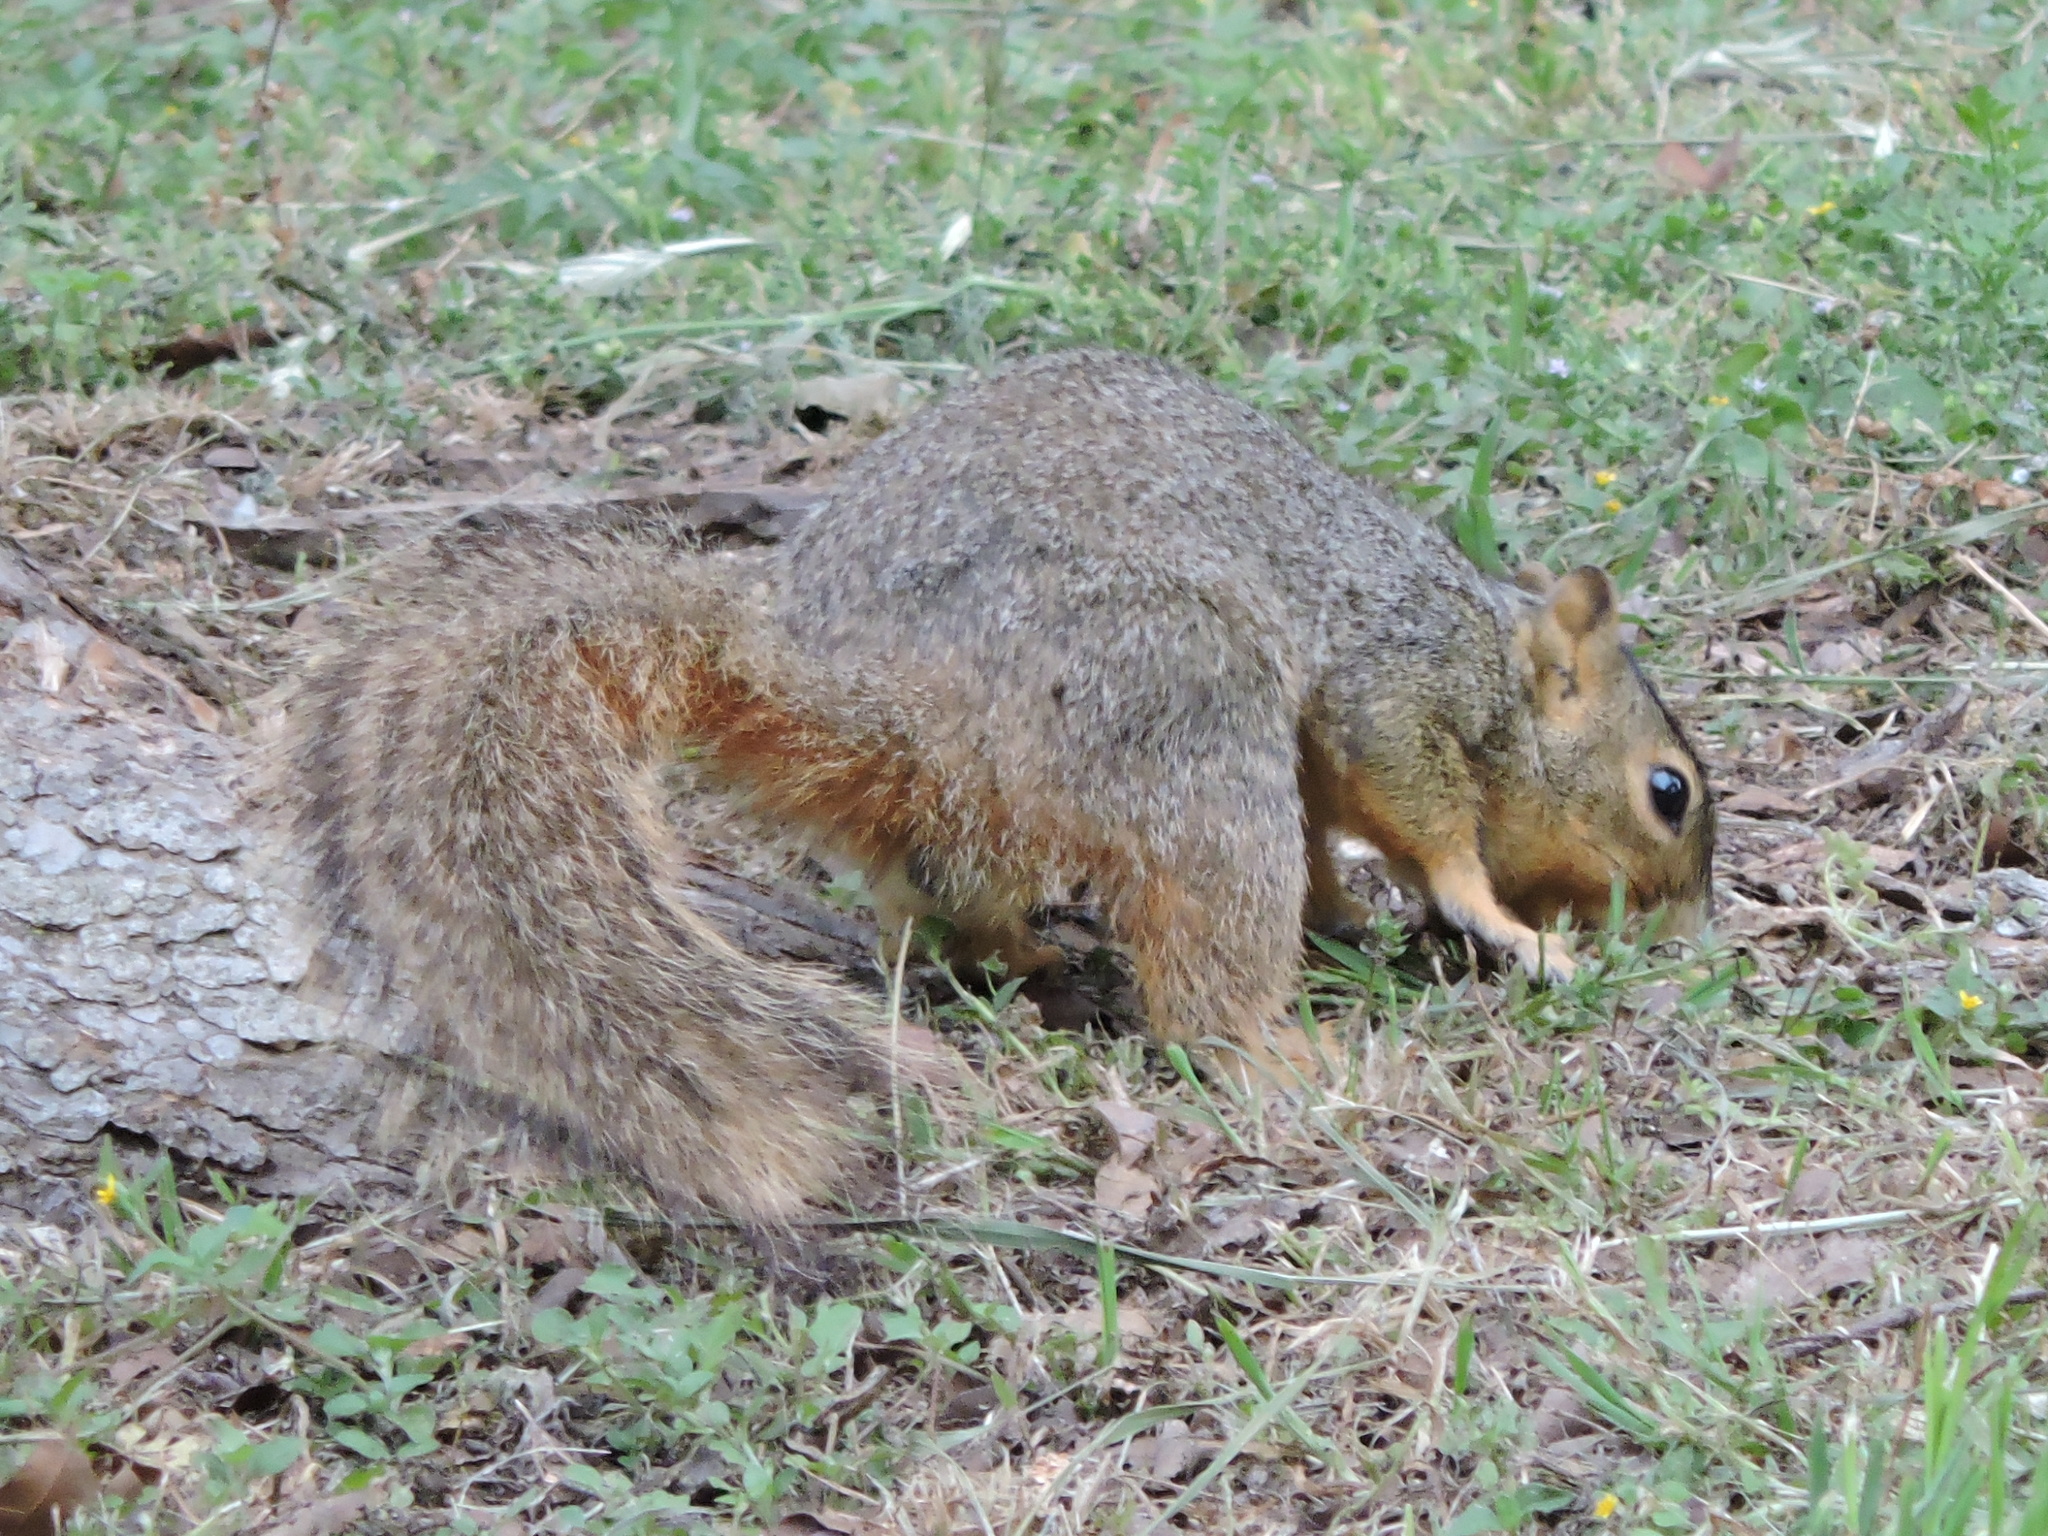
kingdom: Animalia
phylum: Chordata
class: Mammalia
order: Rodentia
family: Sciuridae
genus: Sciurus
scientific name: Sciurus niger
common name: Fox squirrel
